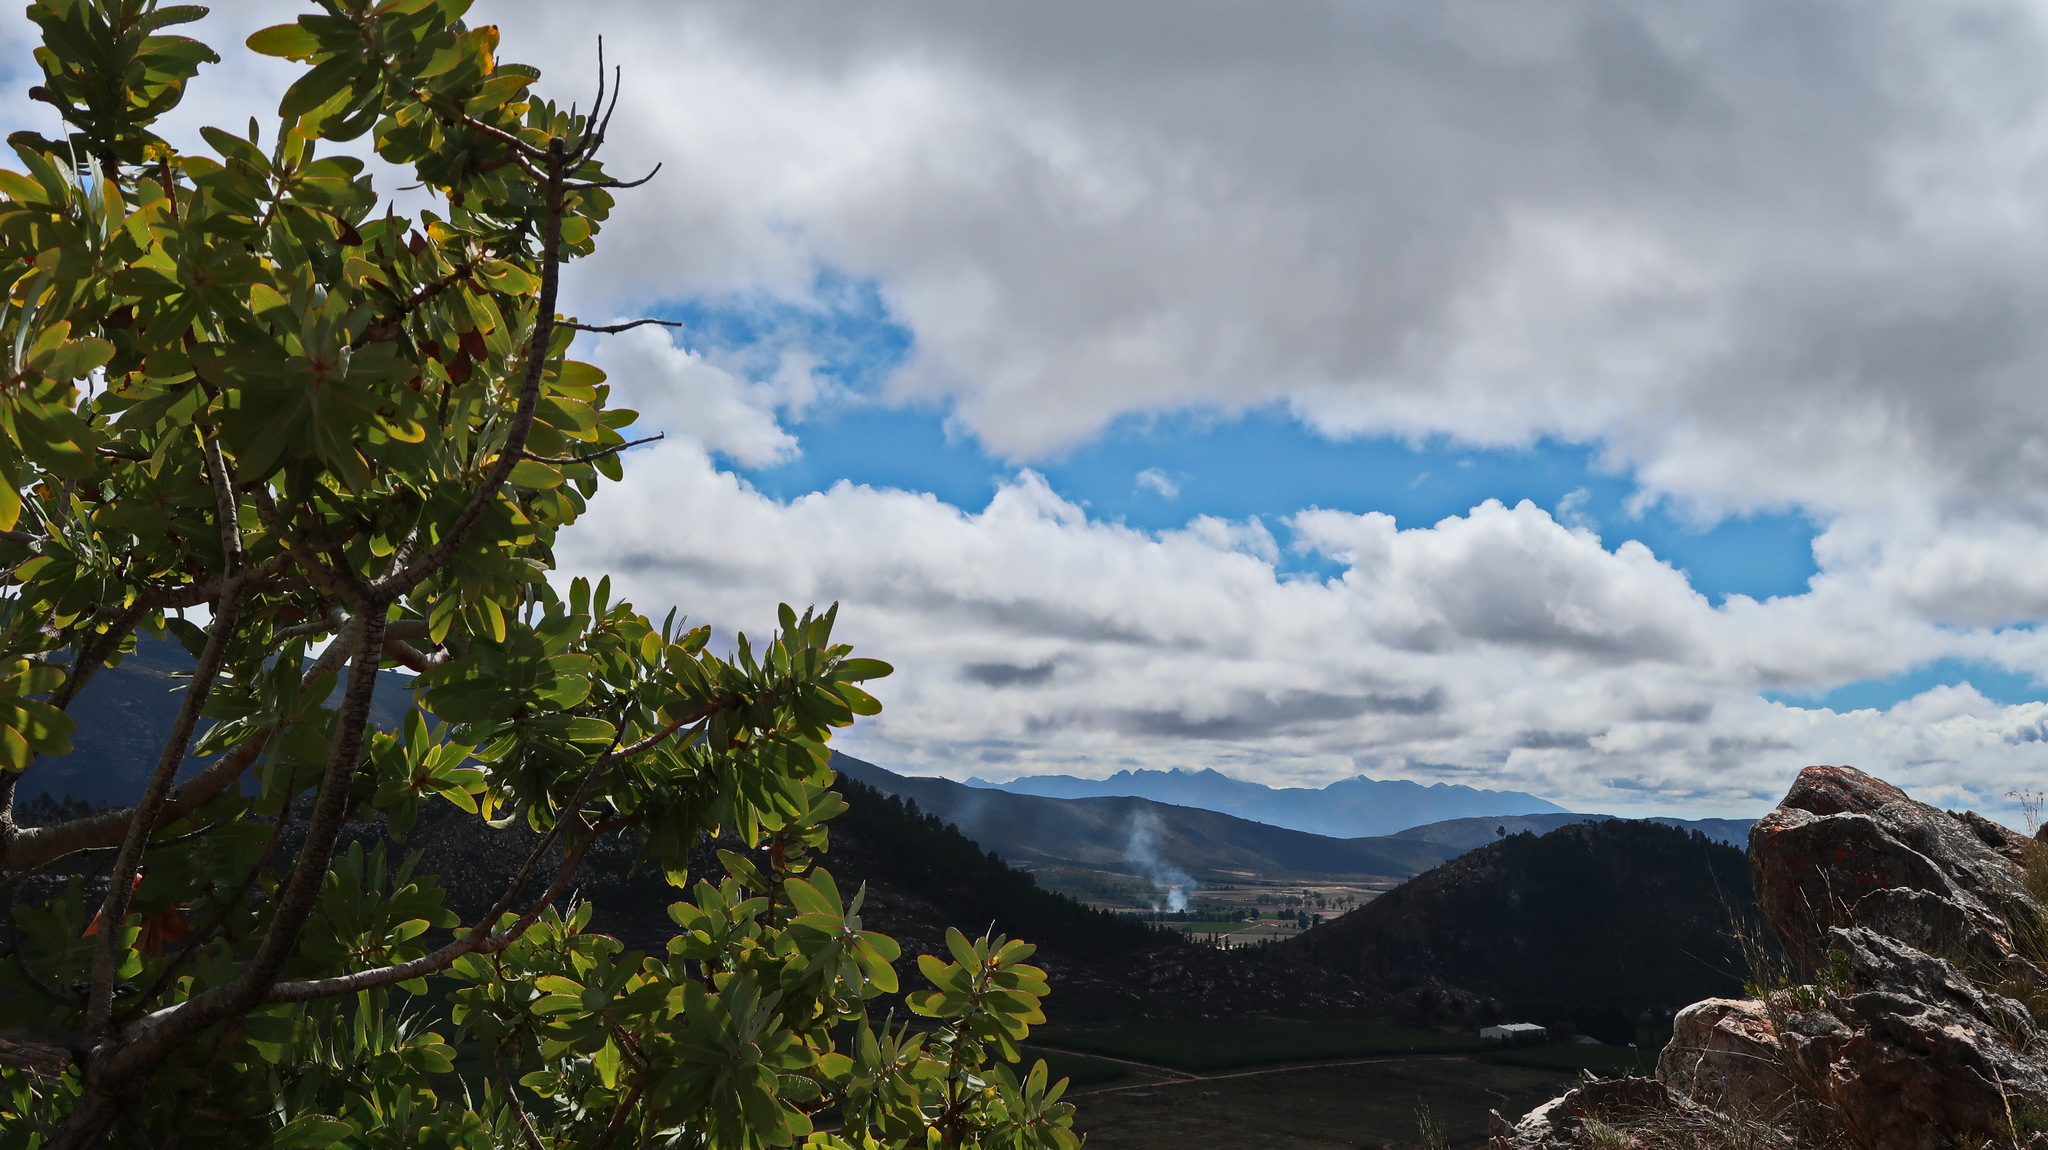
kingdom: Plantae
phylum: Tracheophyta
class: Magnoliopsida
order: Proteales
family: Proteaceae
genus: Protea
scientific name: Protea nitida
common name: Tree protea
